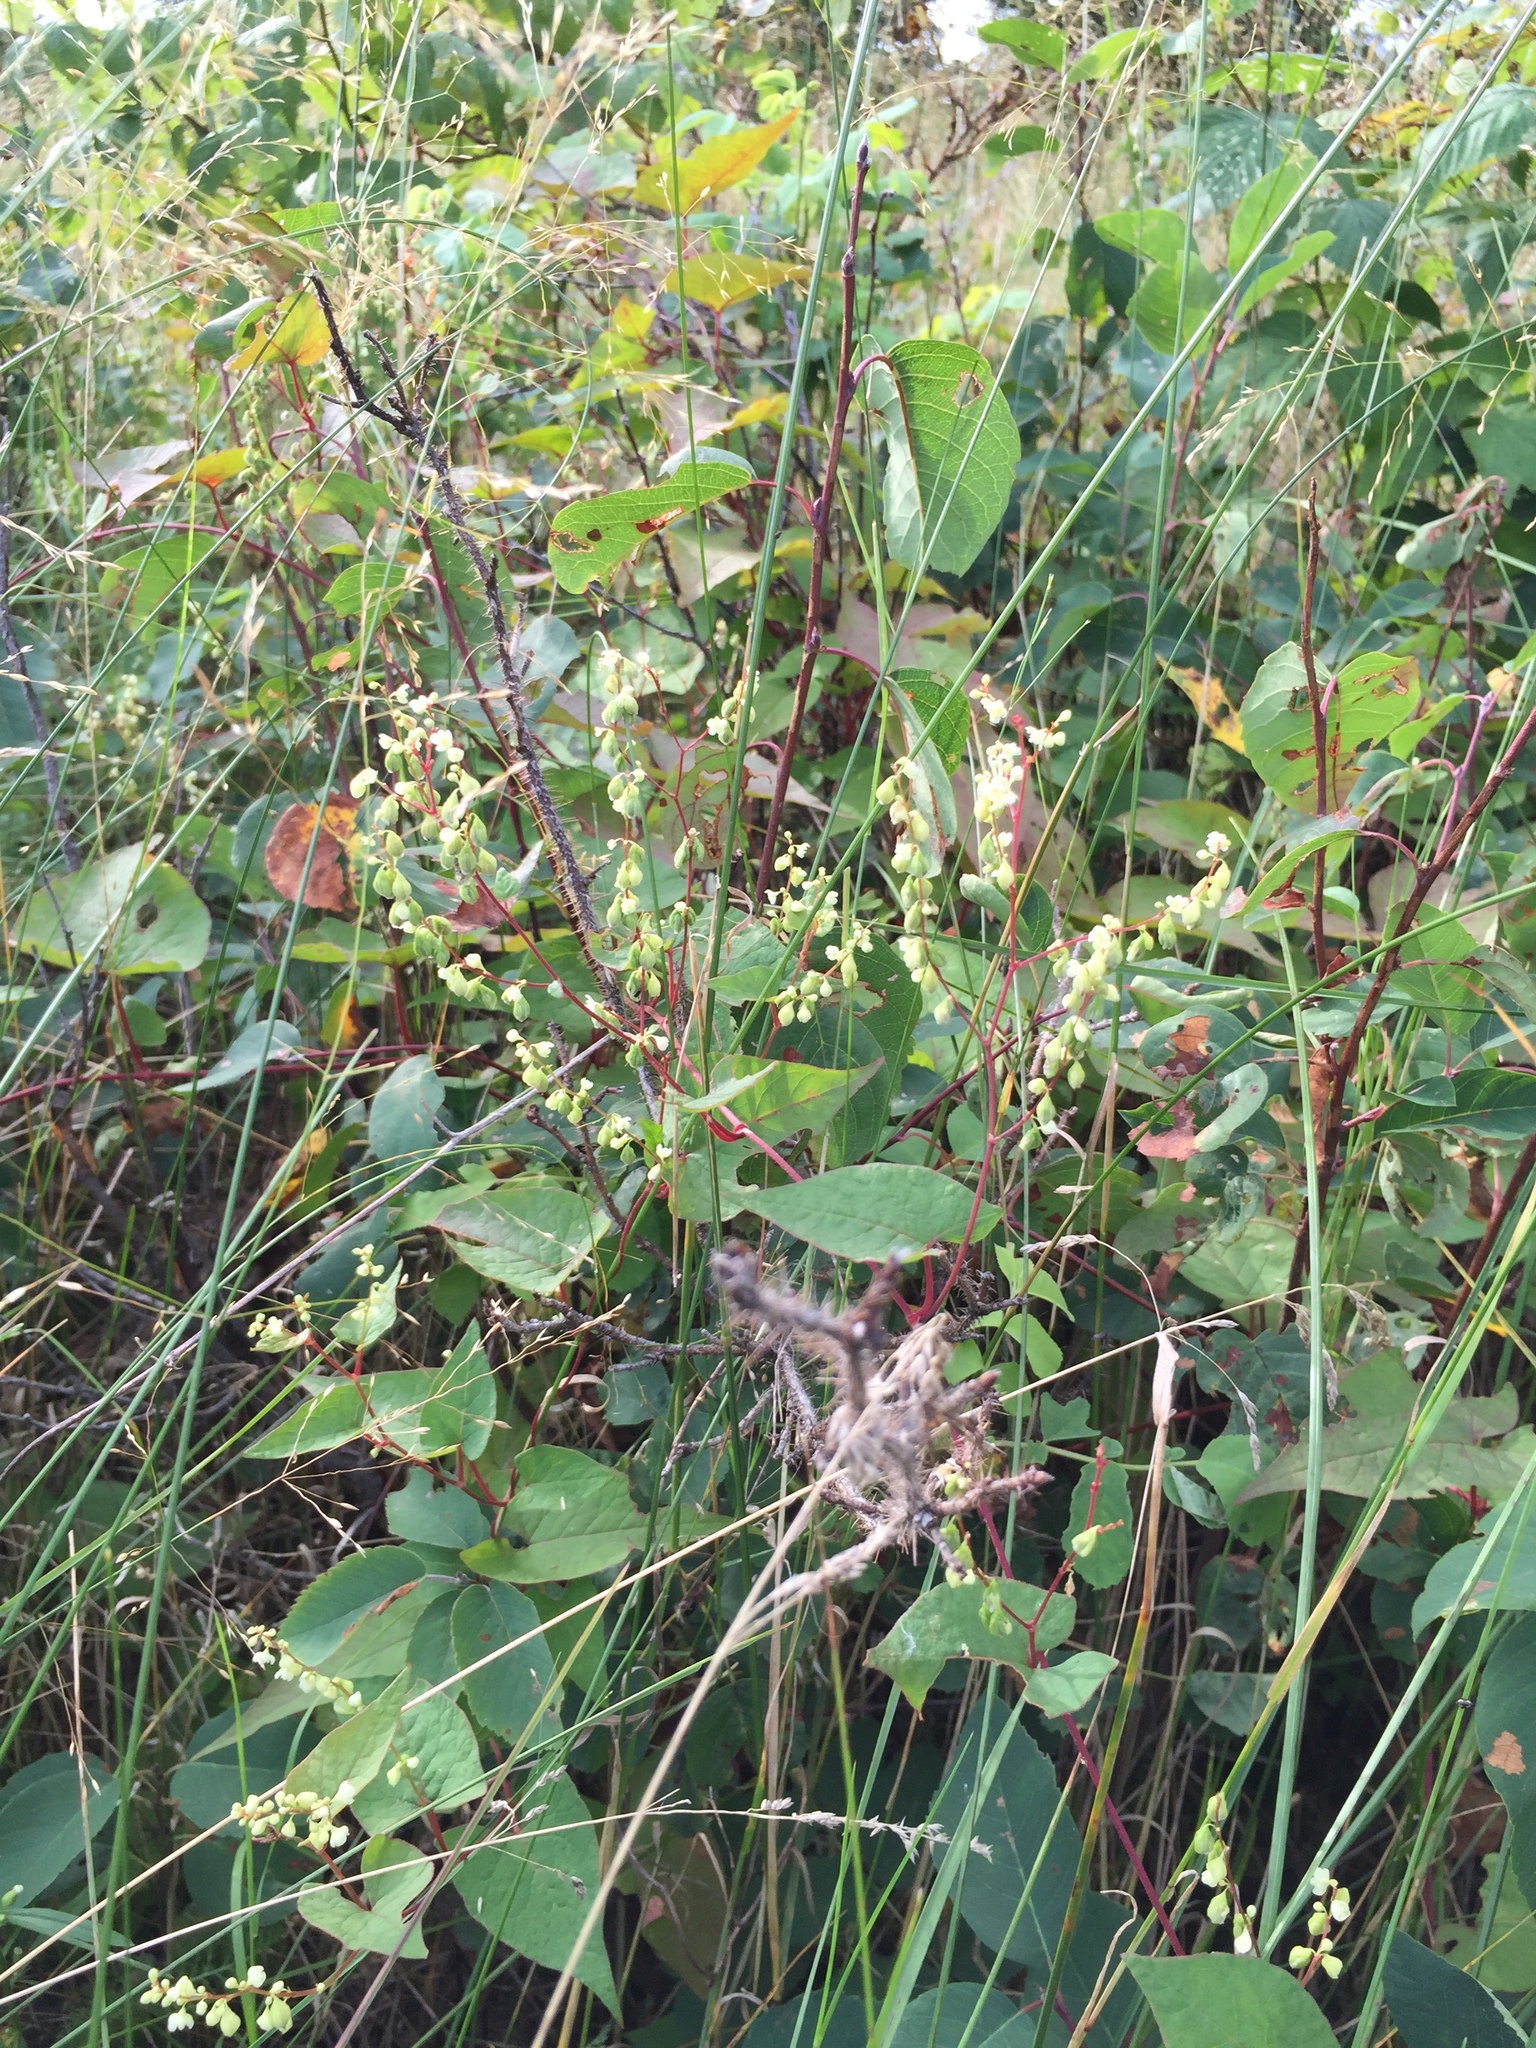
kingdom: Plantae
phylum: Tracheophyta
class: Magnoliopsida
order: Caryophyllales
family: Polygonaceae
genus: Parogonum
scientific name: Parogonum ciliinode
